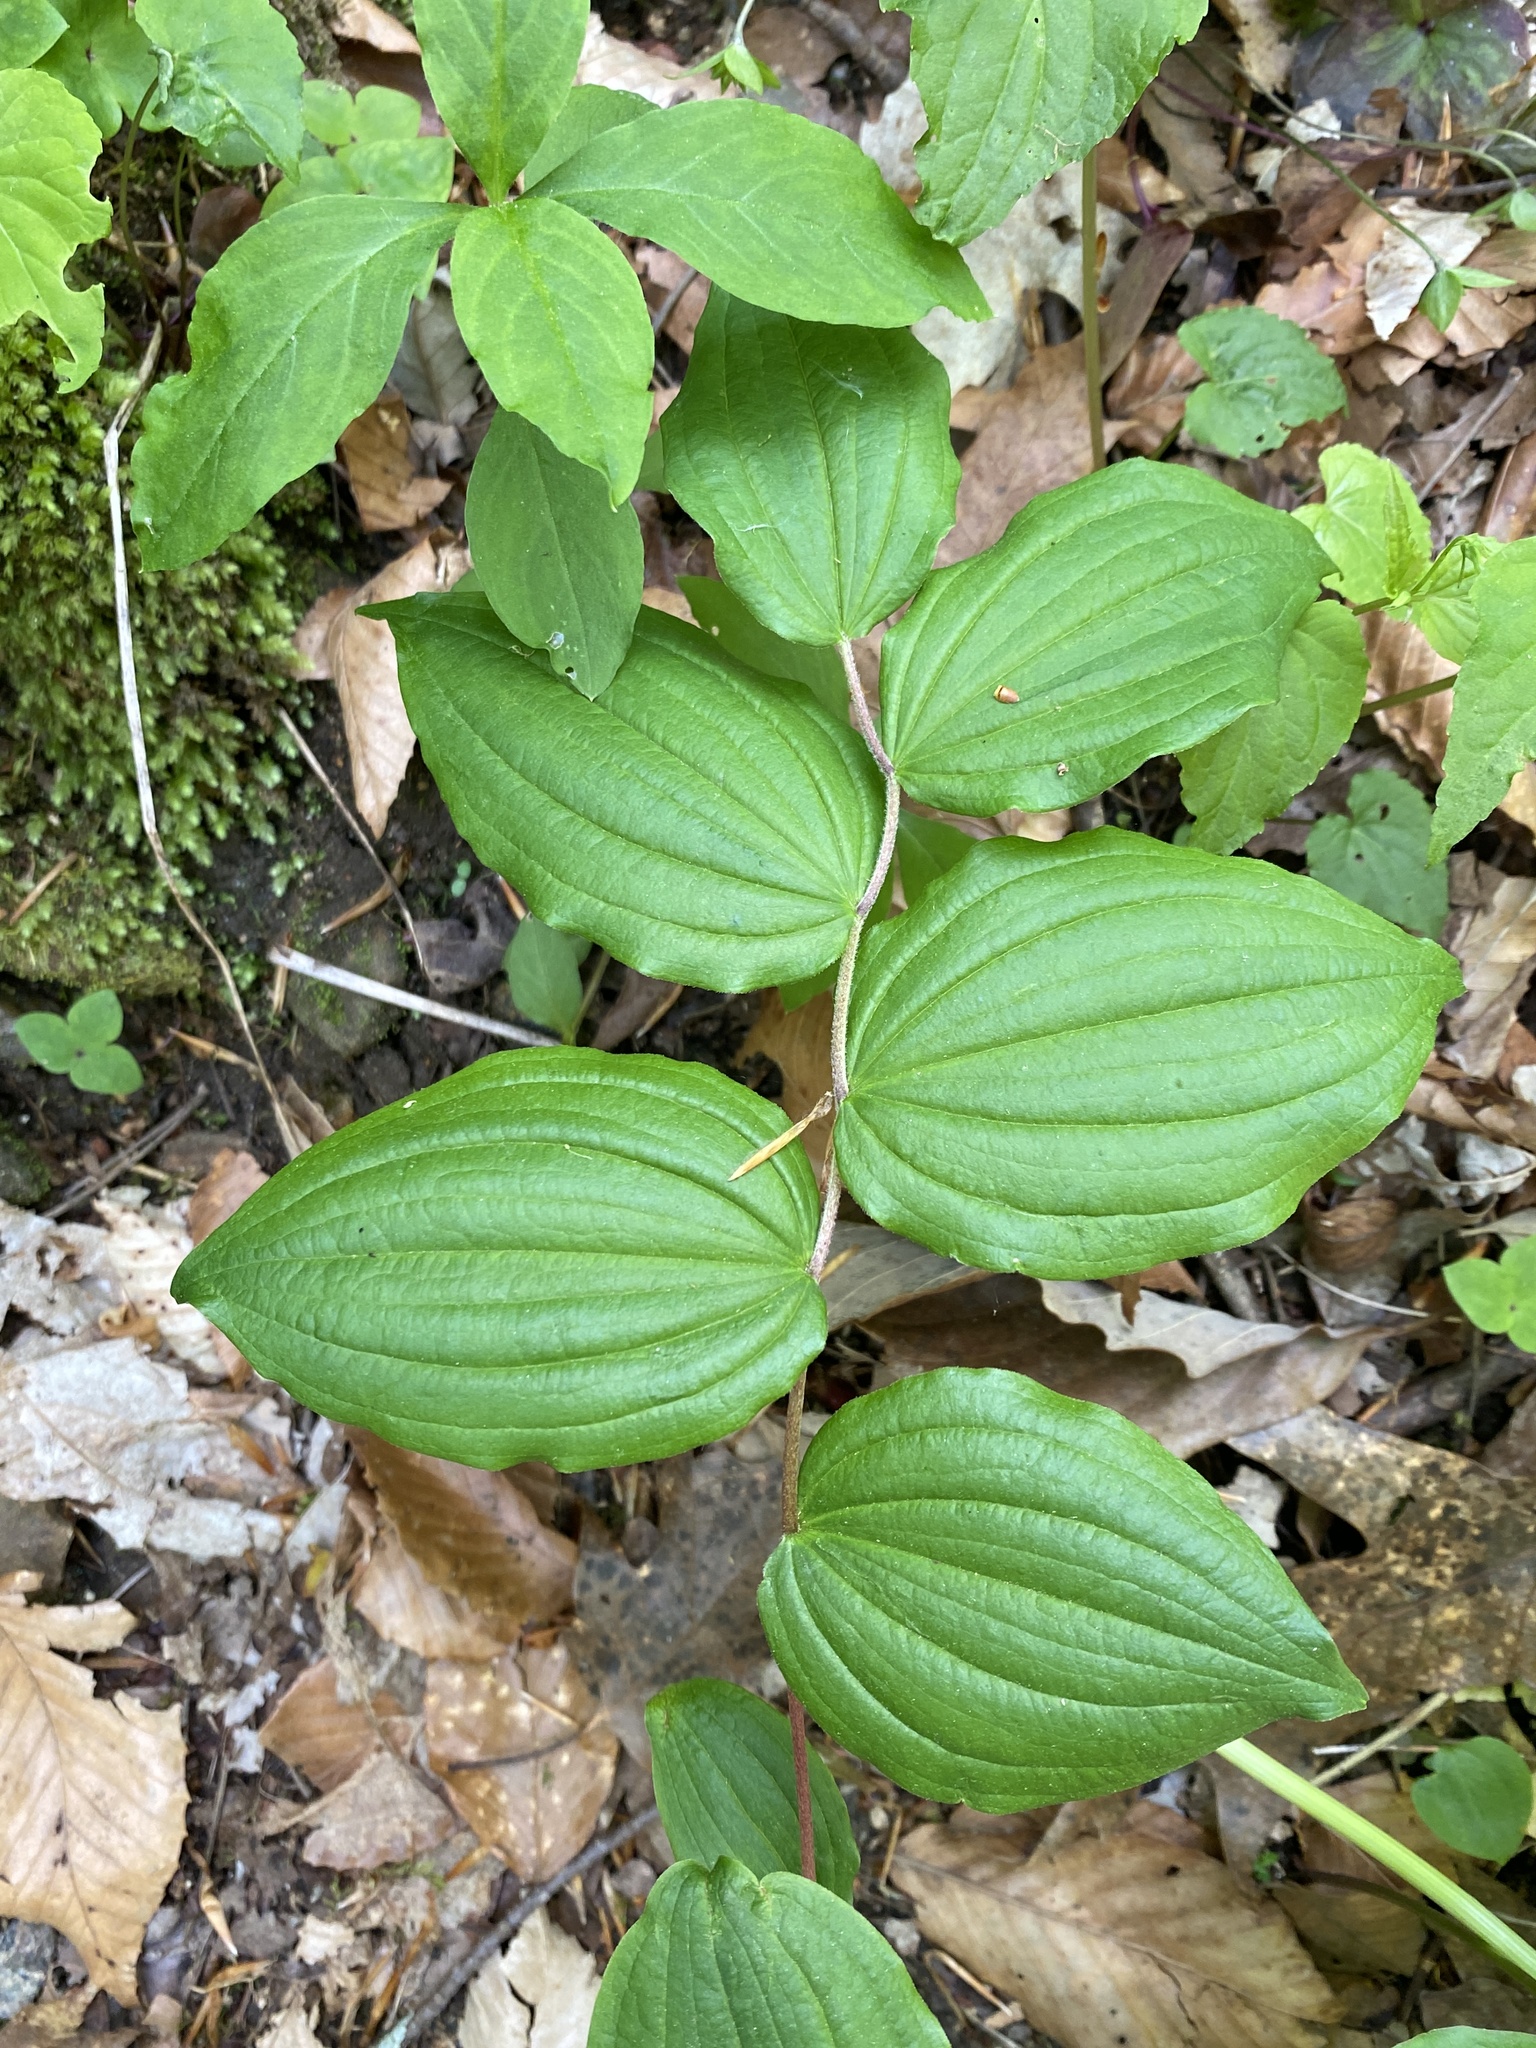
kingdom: Plantae
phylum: Tracheophyta
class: Liliopsida
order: Liliales
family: Liliaceae
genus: Prosartes
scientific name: Prosartes lanuginosa
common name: Hairy mandarin
